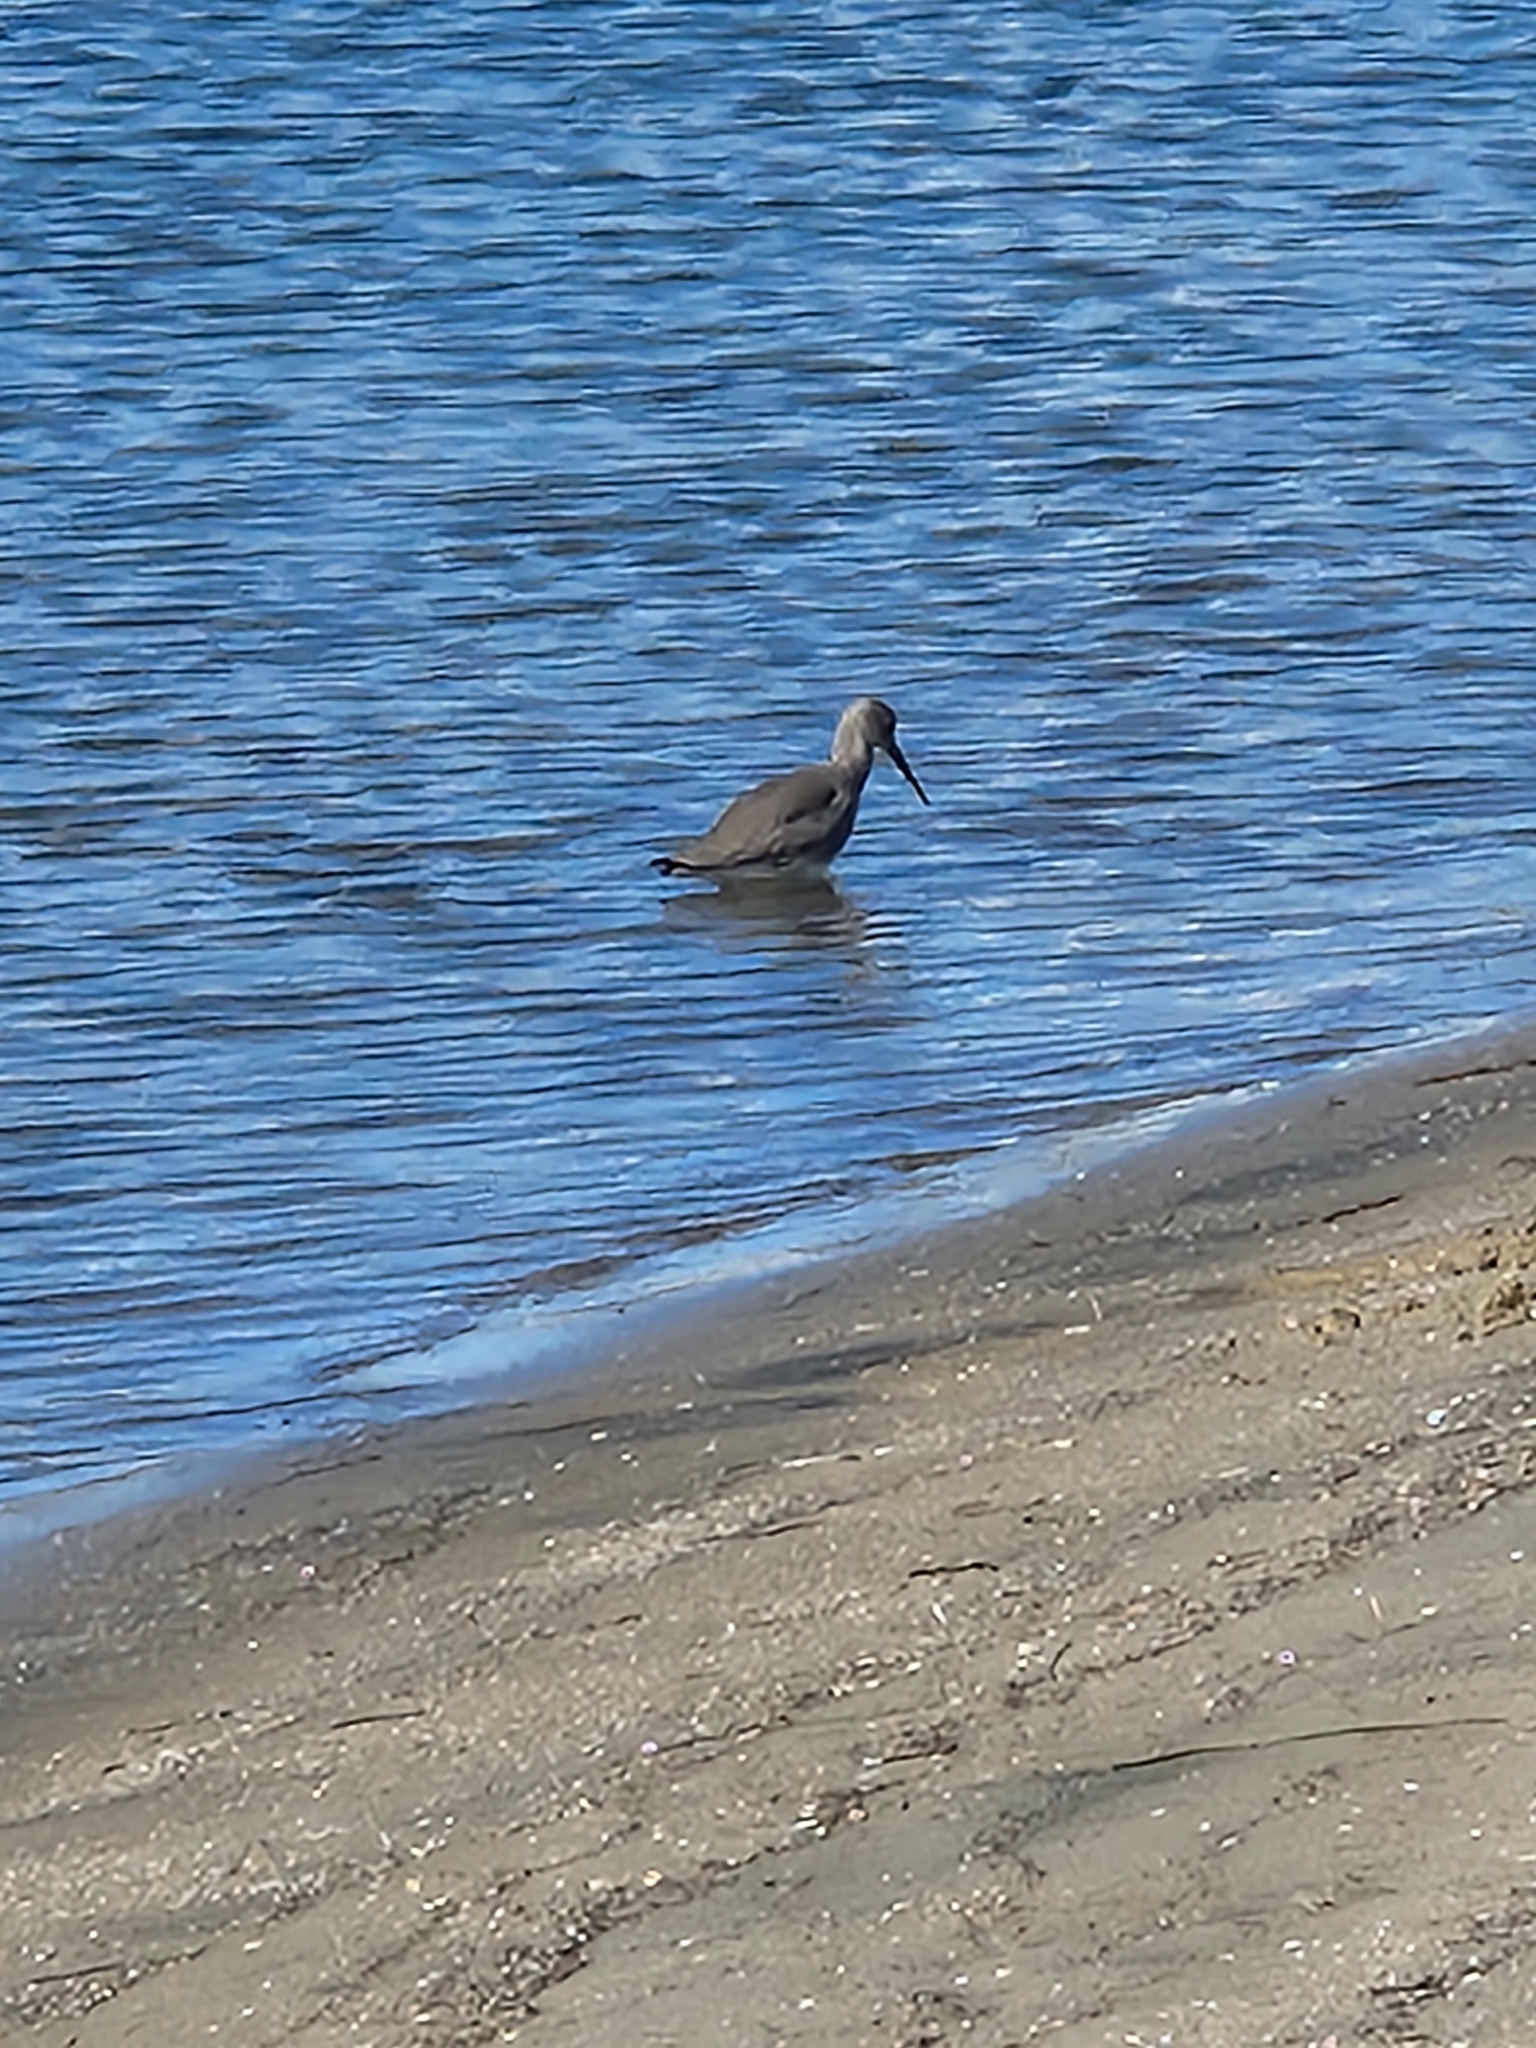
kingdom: Animalia
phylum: Chordata
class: Aves
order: Charadriiformes
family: Scolopacidae
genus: Tringa
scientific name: Tringa semipalmata
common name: Willet
